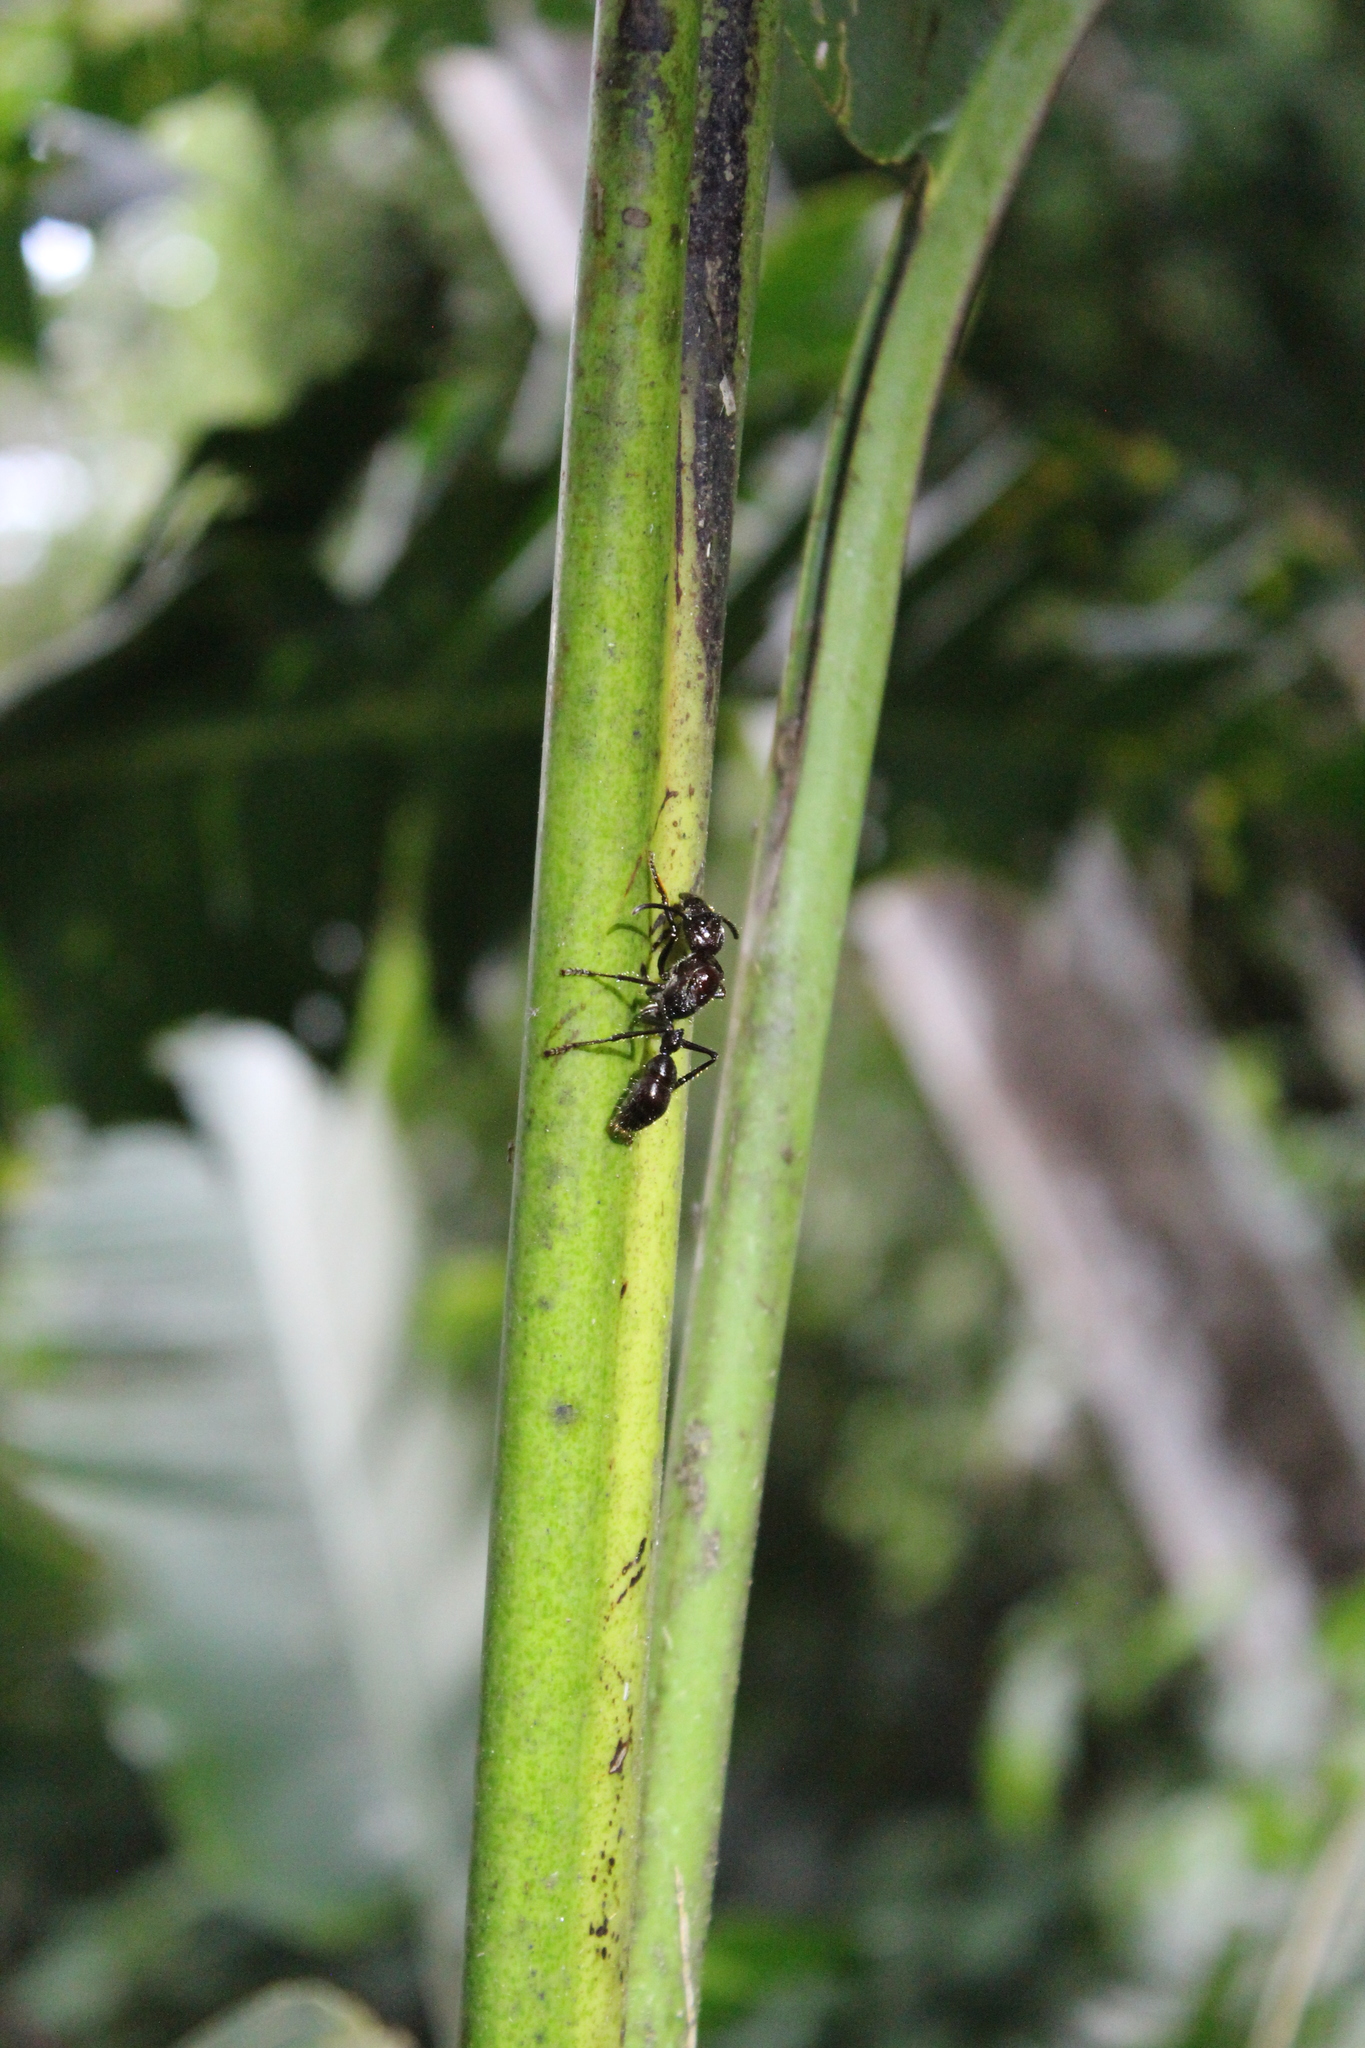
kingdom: Animalia
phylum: Arthropoda
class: Insecta
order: Hymenoptera
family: Formicidae
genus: Paraponera
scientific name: Paraponera clavata
